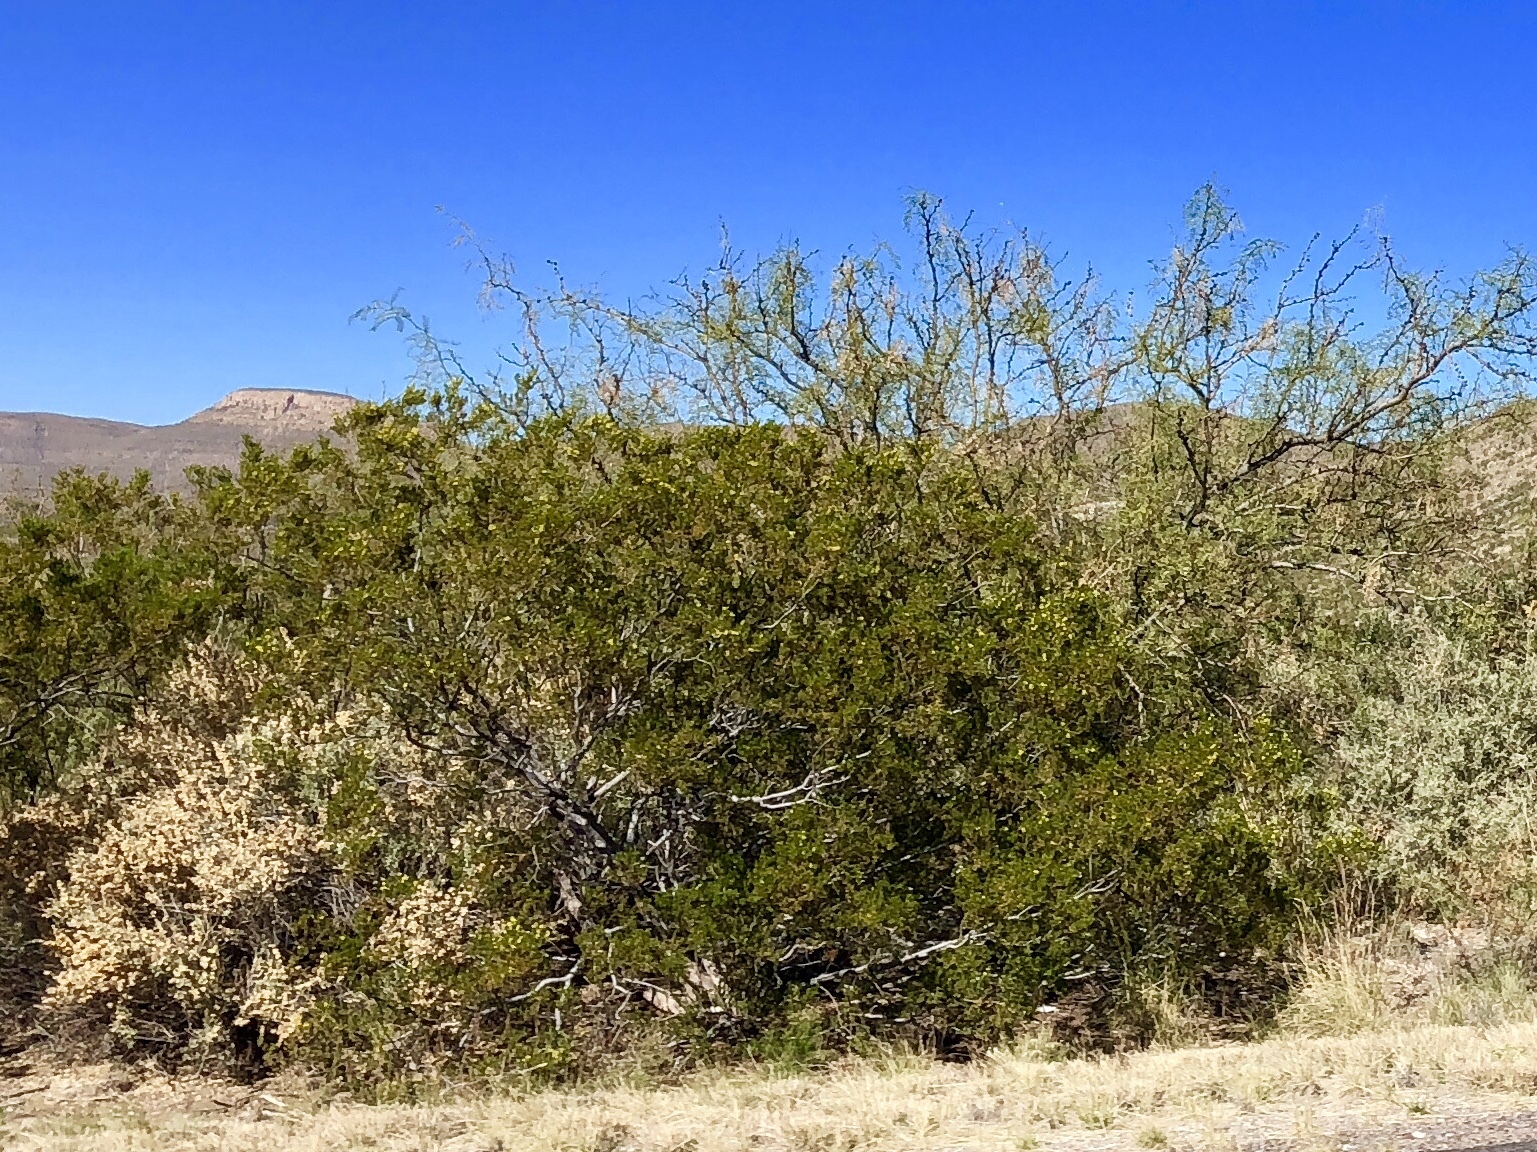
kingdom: Plantae
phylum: Tracheophyta
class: Magnoliopsida
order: Zygophyllales
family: Zygophyllaceae
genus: Larrea
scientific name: Larrea tridentata
